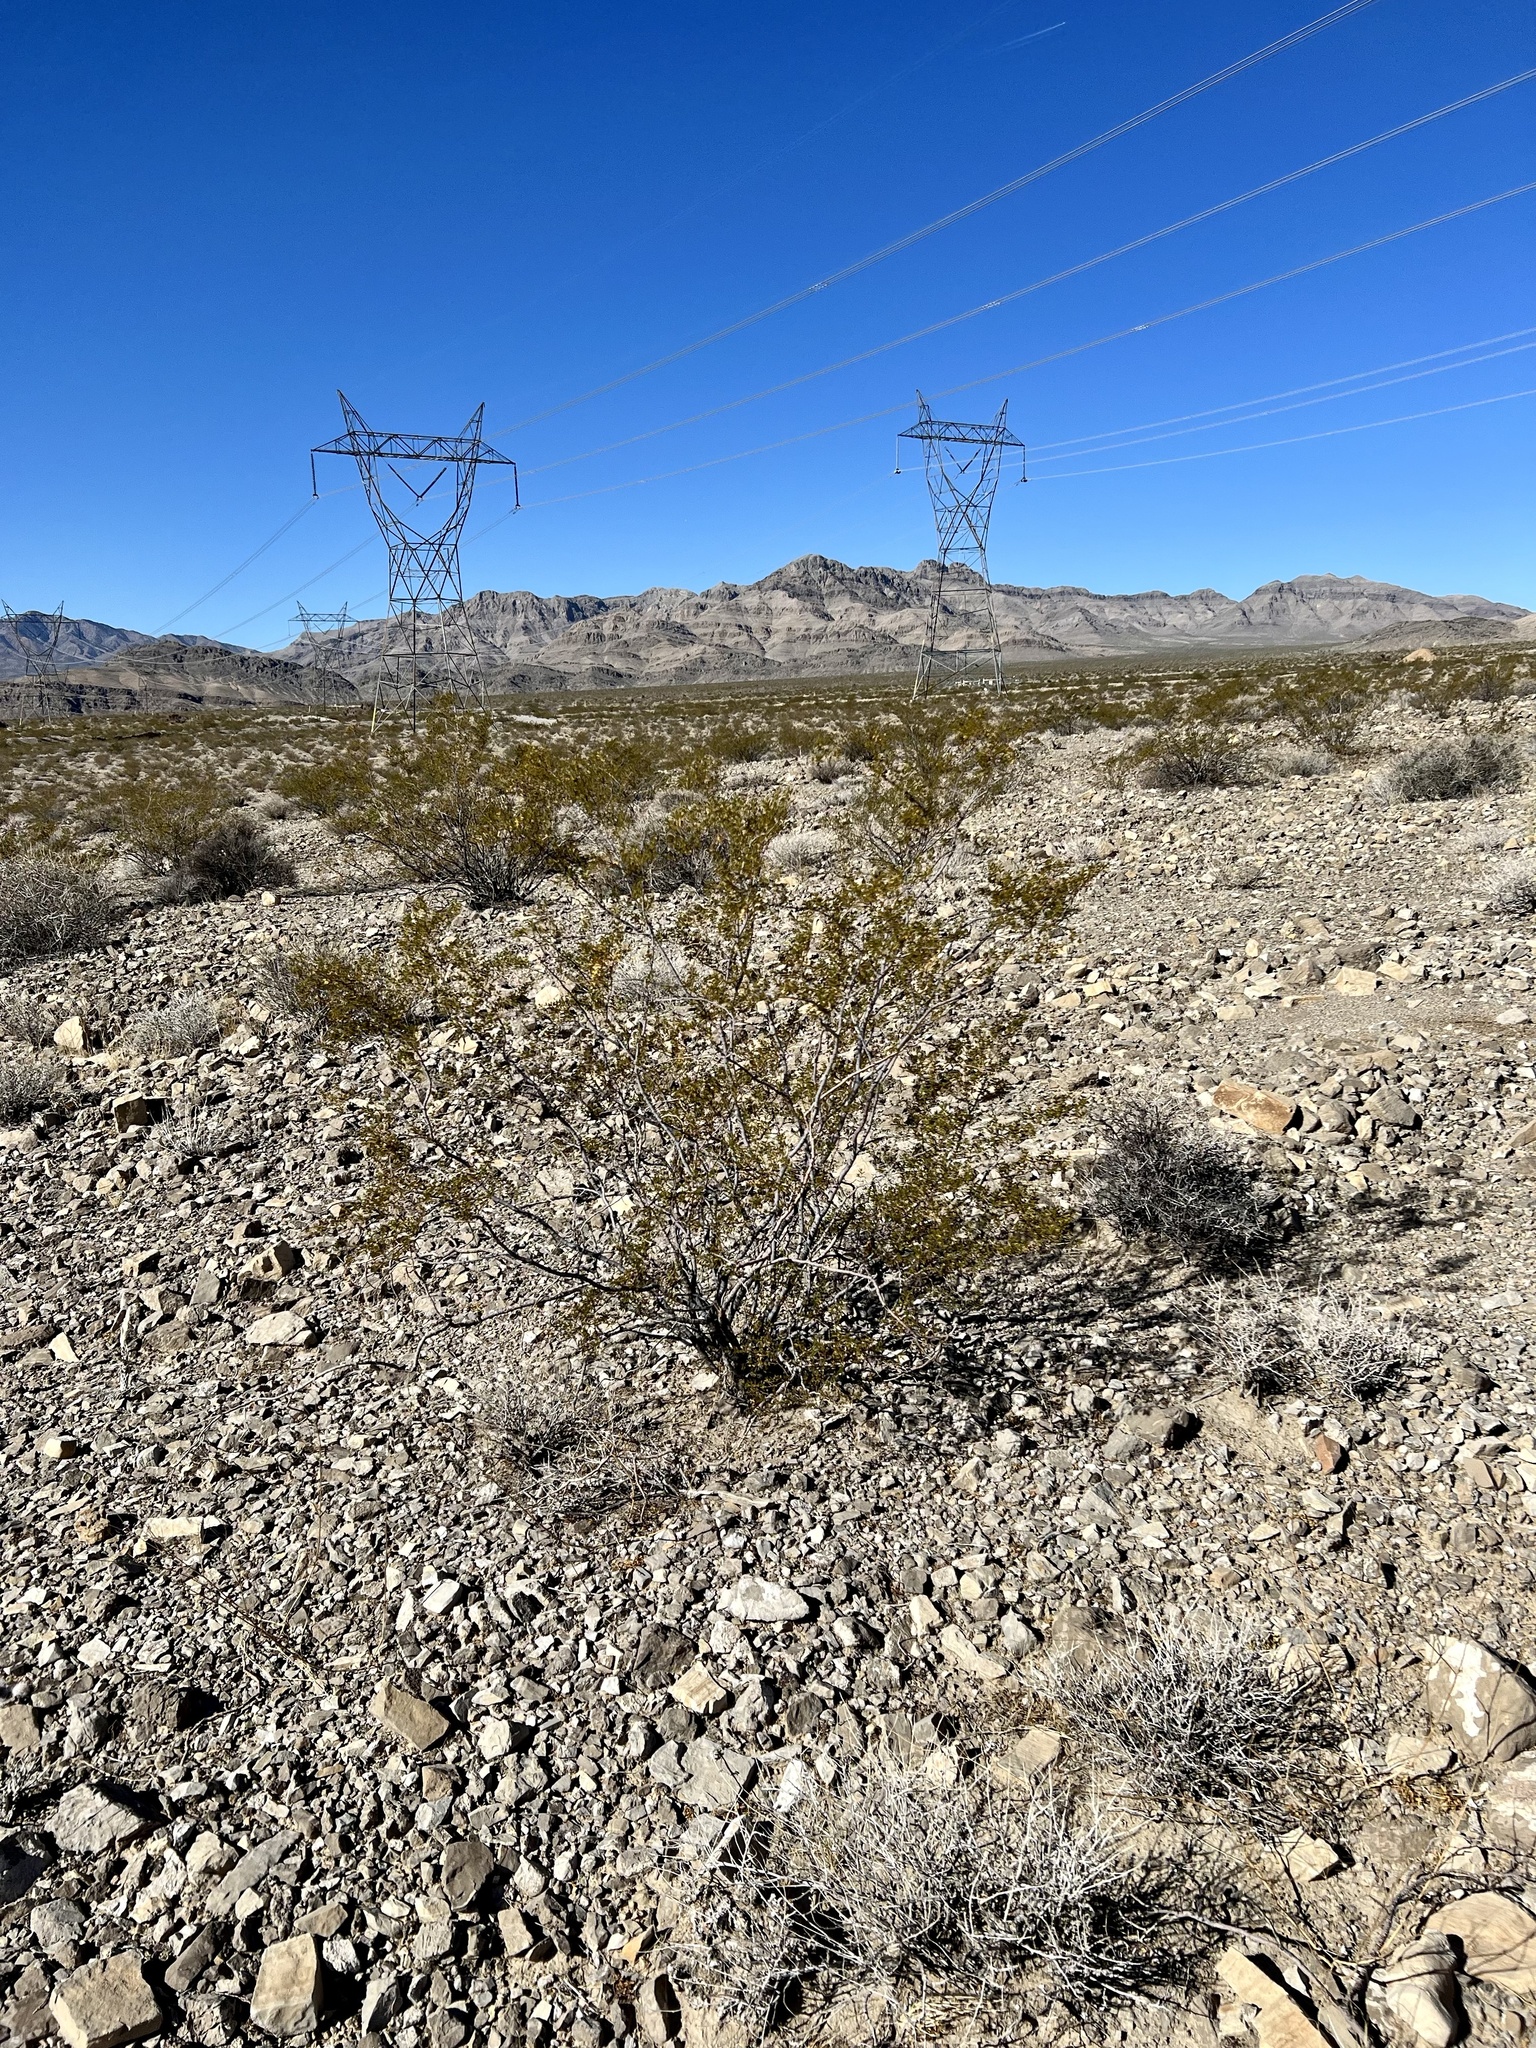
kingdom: Plantae
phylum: Tracheophyta
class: Magnoliopsida
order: Zygophyllales
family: Zygophyllaceae
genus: Larrea
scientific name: Larrea tridentata
